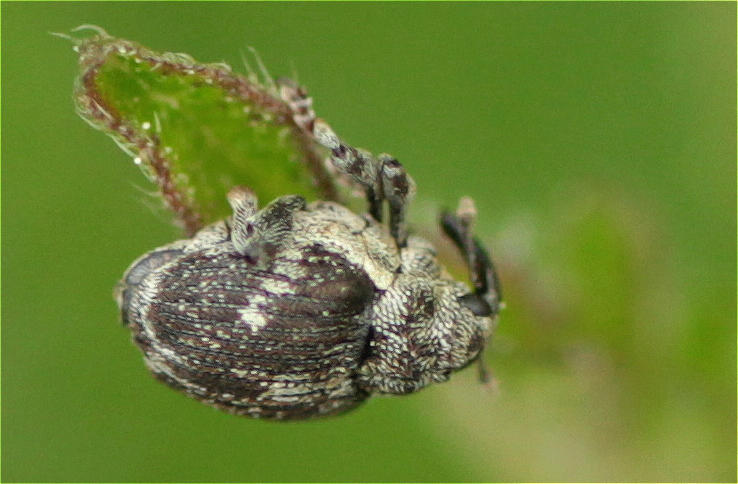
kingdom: Animalia
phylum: Arthropoda
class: Insecta
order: Coleoptera
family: Curculionidae
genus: Nedyus
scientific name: Nedyus quadrimaculatus
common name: Small nettle weevil
